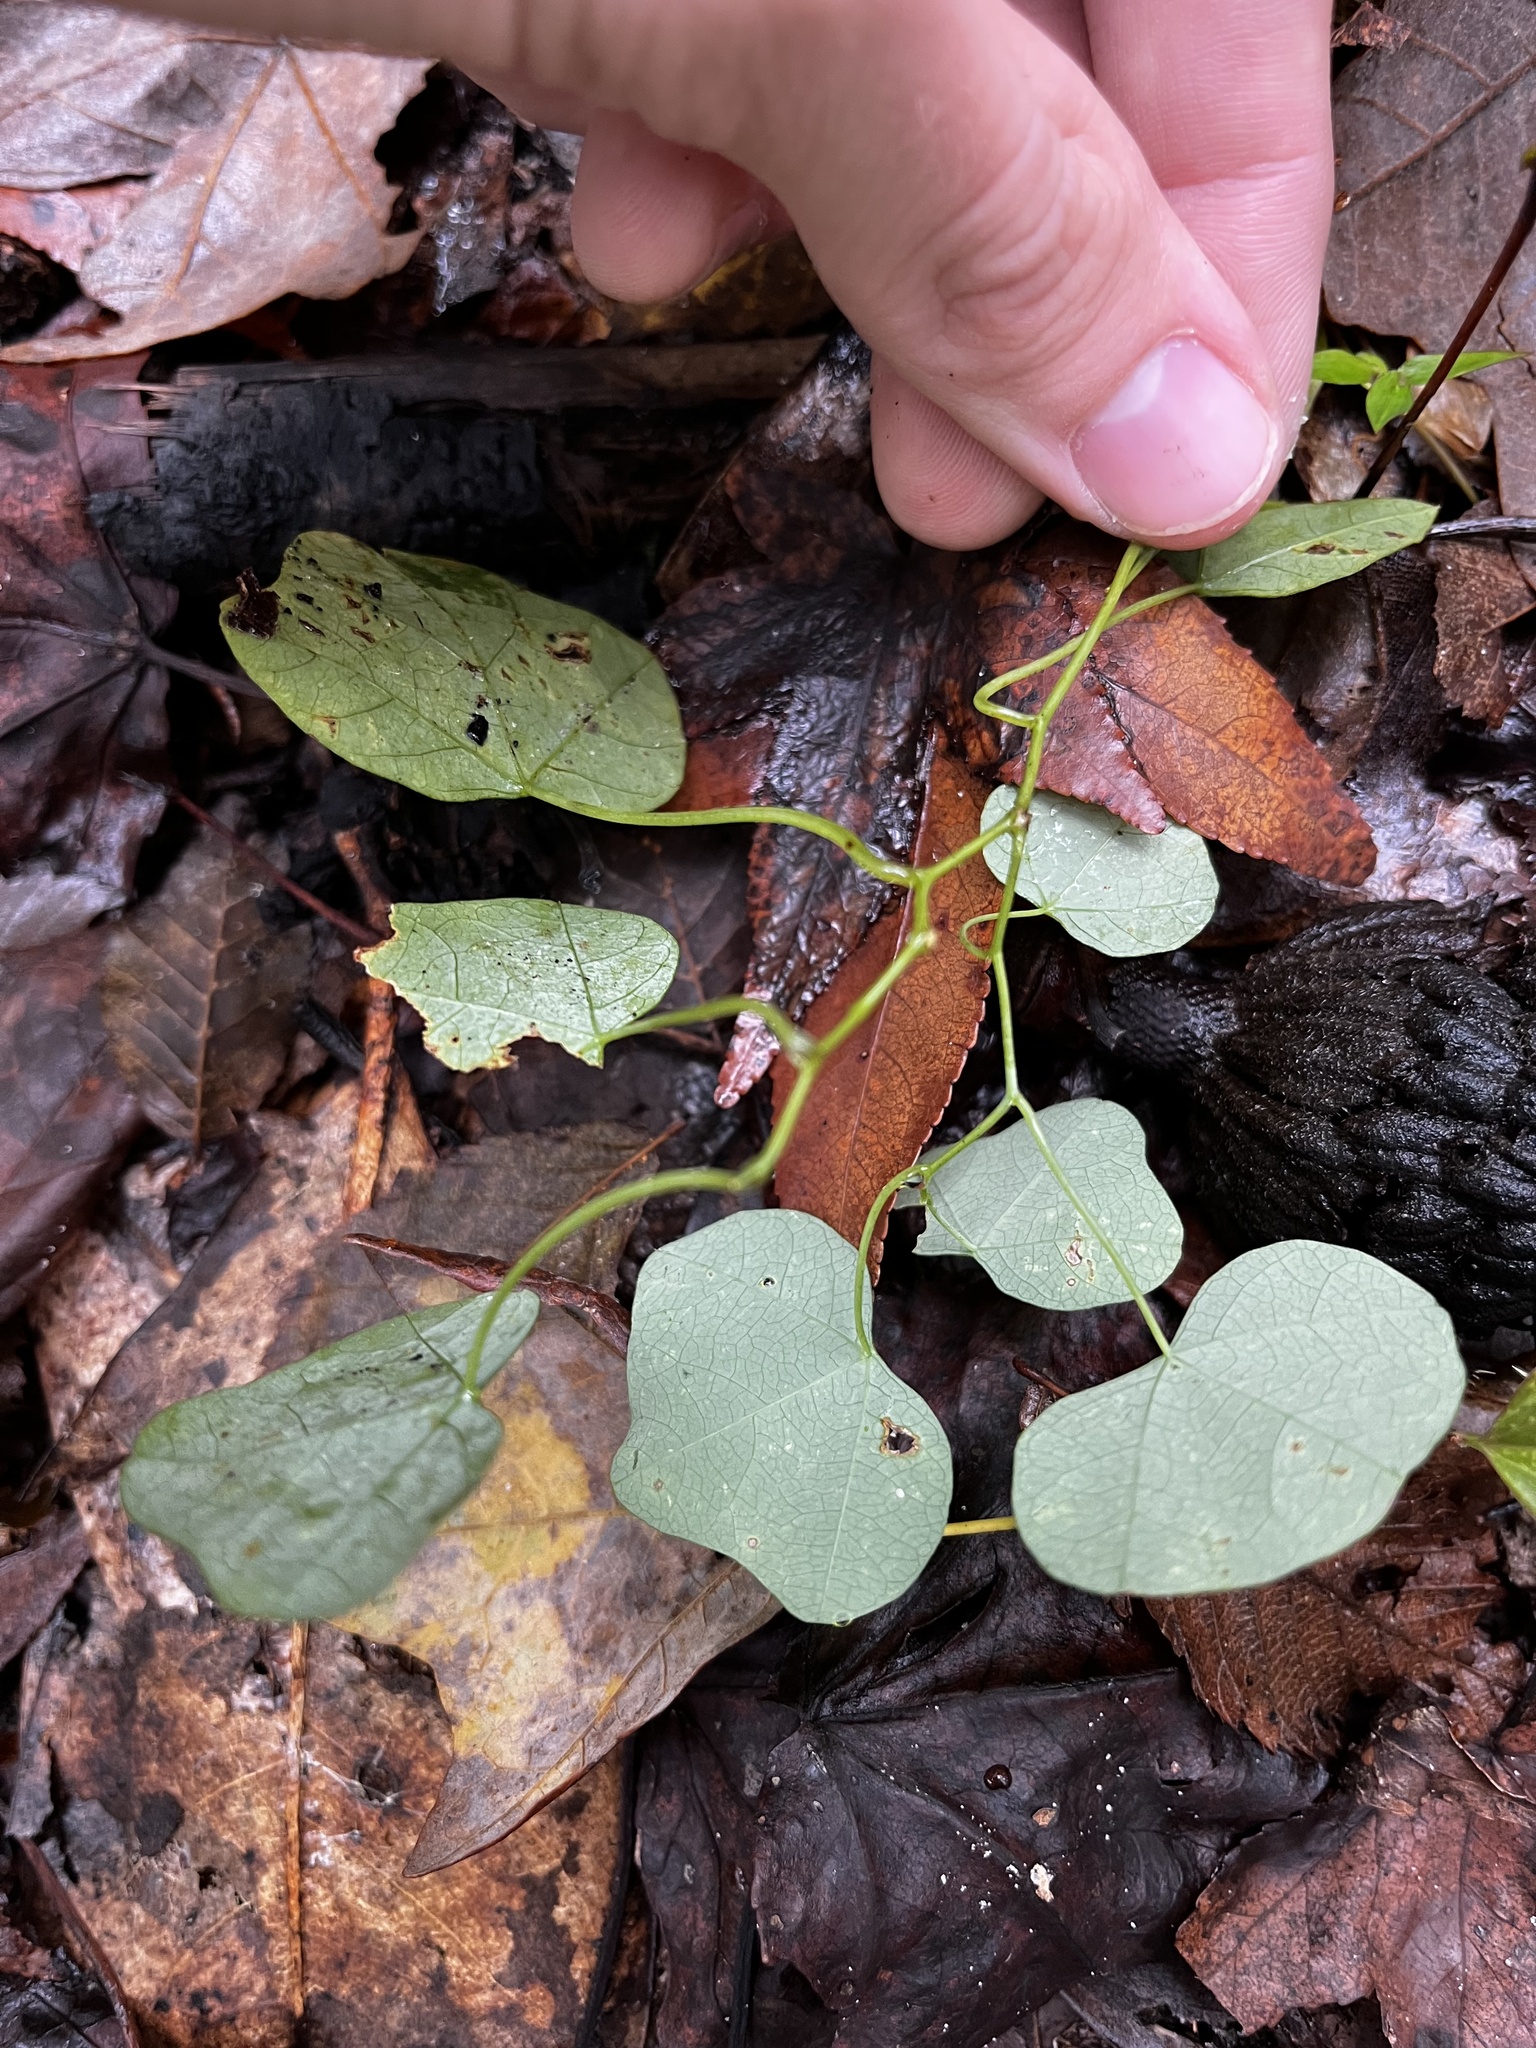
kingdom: Plantae
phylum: Tracheophyta
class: Magnoliopsida
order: Malpighiales
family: Passifloraceae
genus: Passiflora
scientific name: Passiflora lutea
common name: Yellow passionflower
